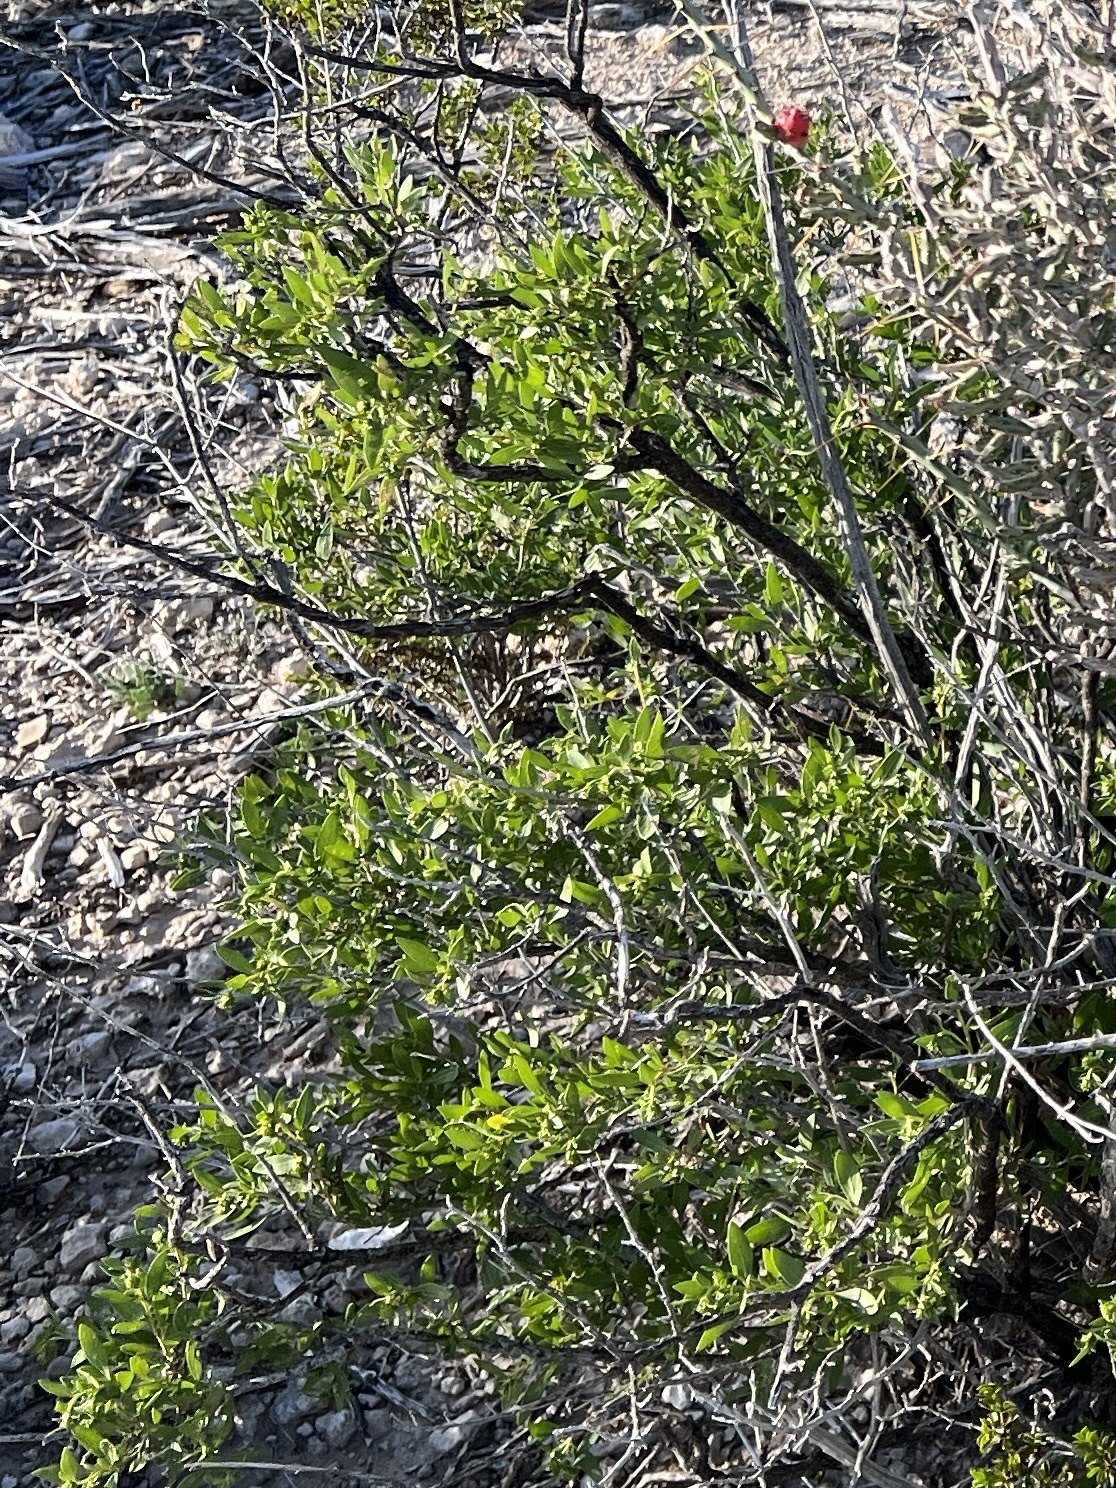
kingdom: Plantae
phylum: Tracheophyta
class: Magnoliopsida
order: Asterales
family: Asteraceae
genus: Flourensia
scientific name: Flourensia cernua
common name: Varnishbush
